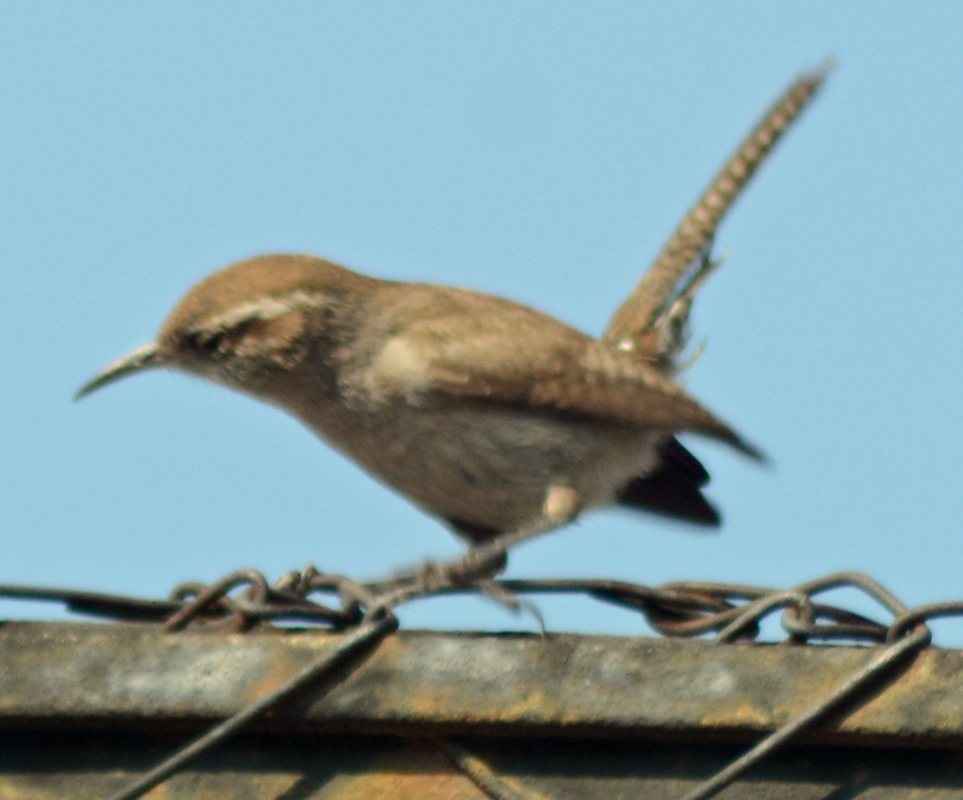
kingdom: Animalia
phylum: Chordata
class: Aves
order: Passeriformes
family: Troglodytidae
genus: Thryomanes
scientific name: Thryomanes bewickii
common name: Bewick's wren
